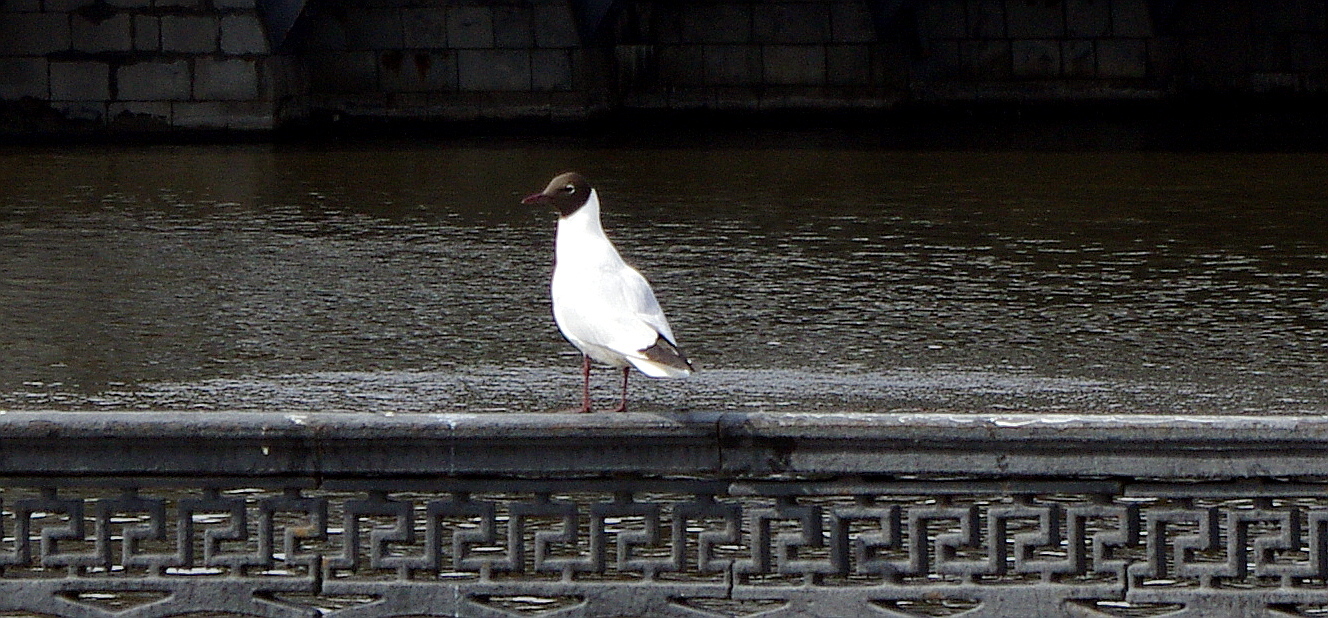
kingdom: Animalia
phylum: Chordata
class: Aves
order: Charadriiformes
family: Laridae
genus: Chroicocephalus
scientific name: Chroicocephalus ridibundus
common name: Black-headed gull
